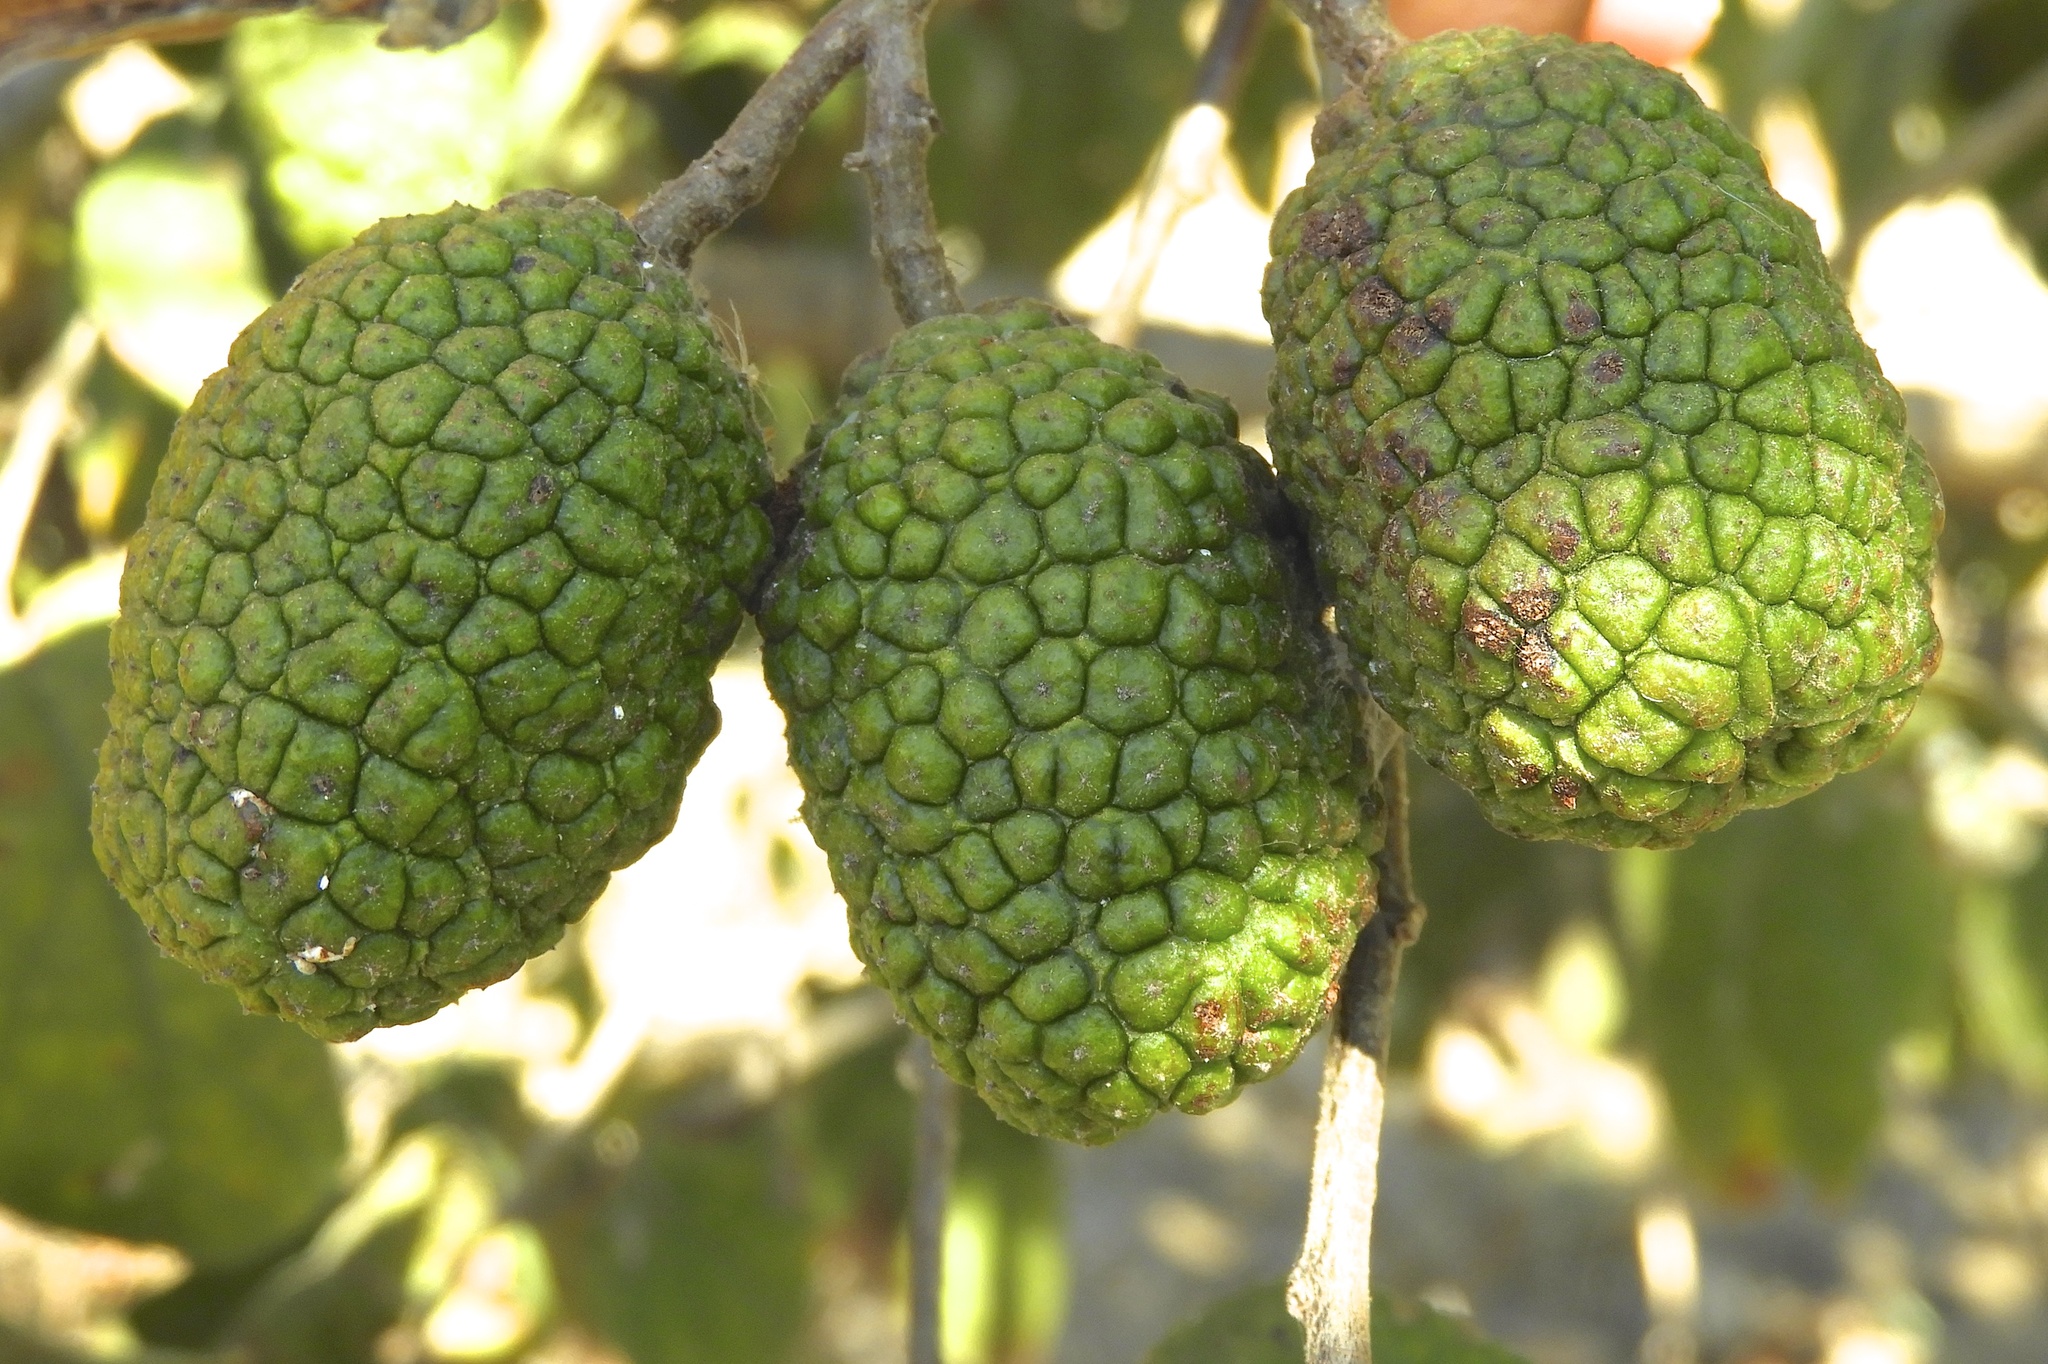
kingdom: Plantae
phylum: Tracheophyta
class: Magnoliopsida
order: Malvales
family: Malvaceae
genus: Guazuma
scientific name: Guazuma ulmifolia
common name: Bastard-cedar
